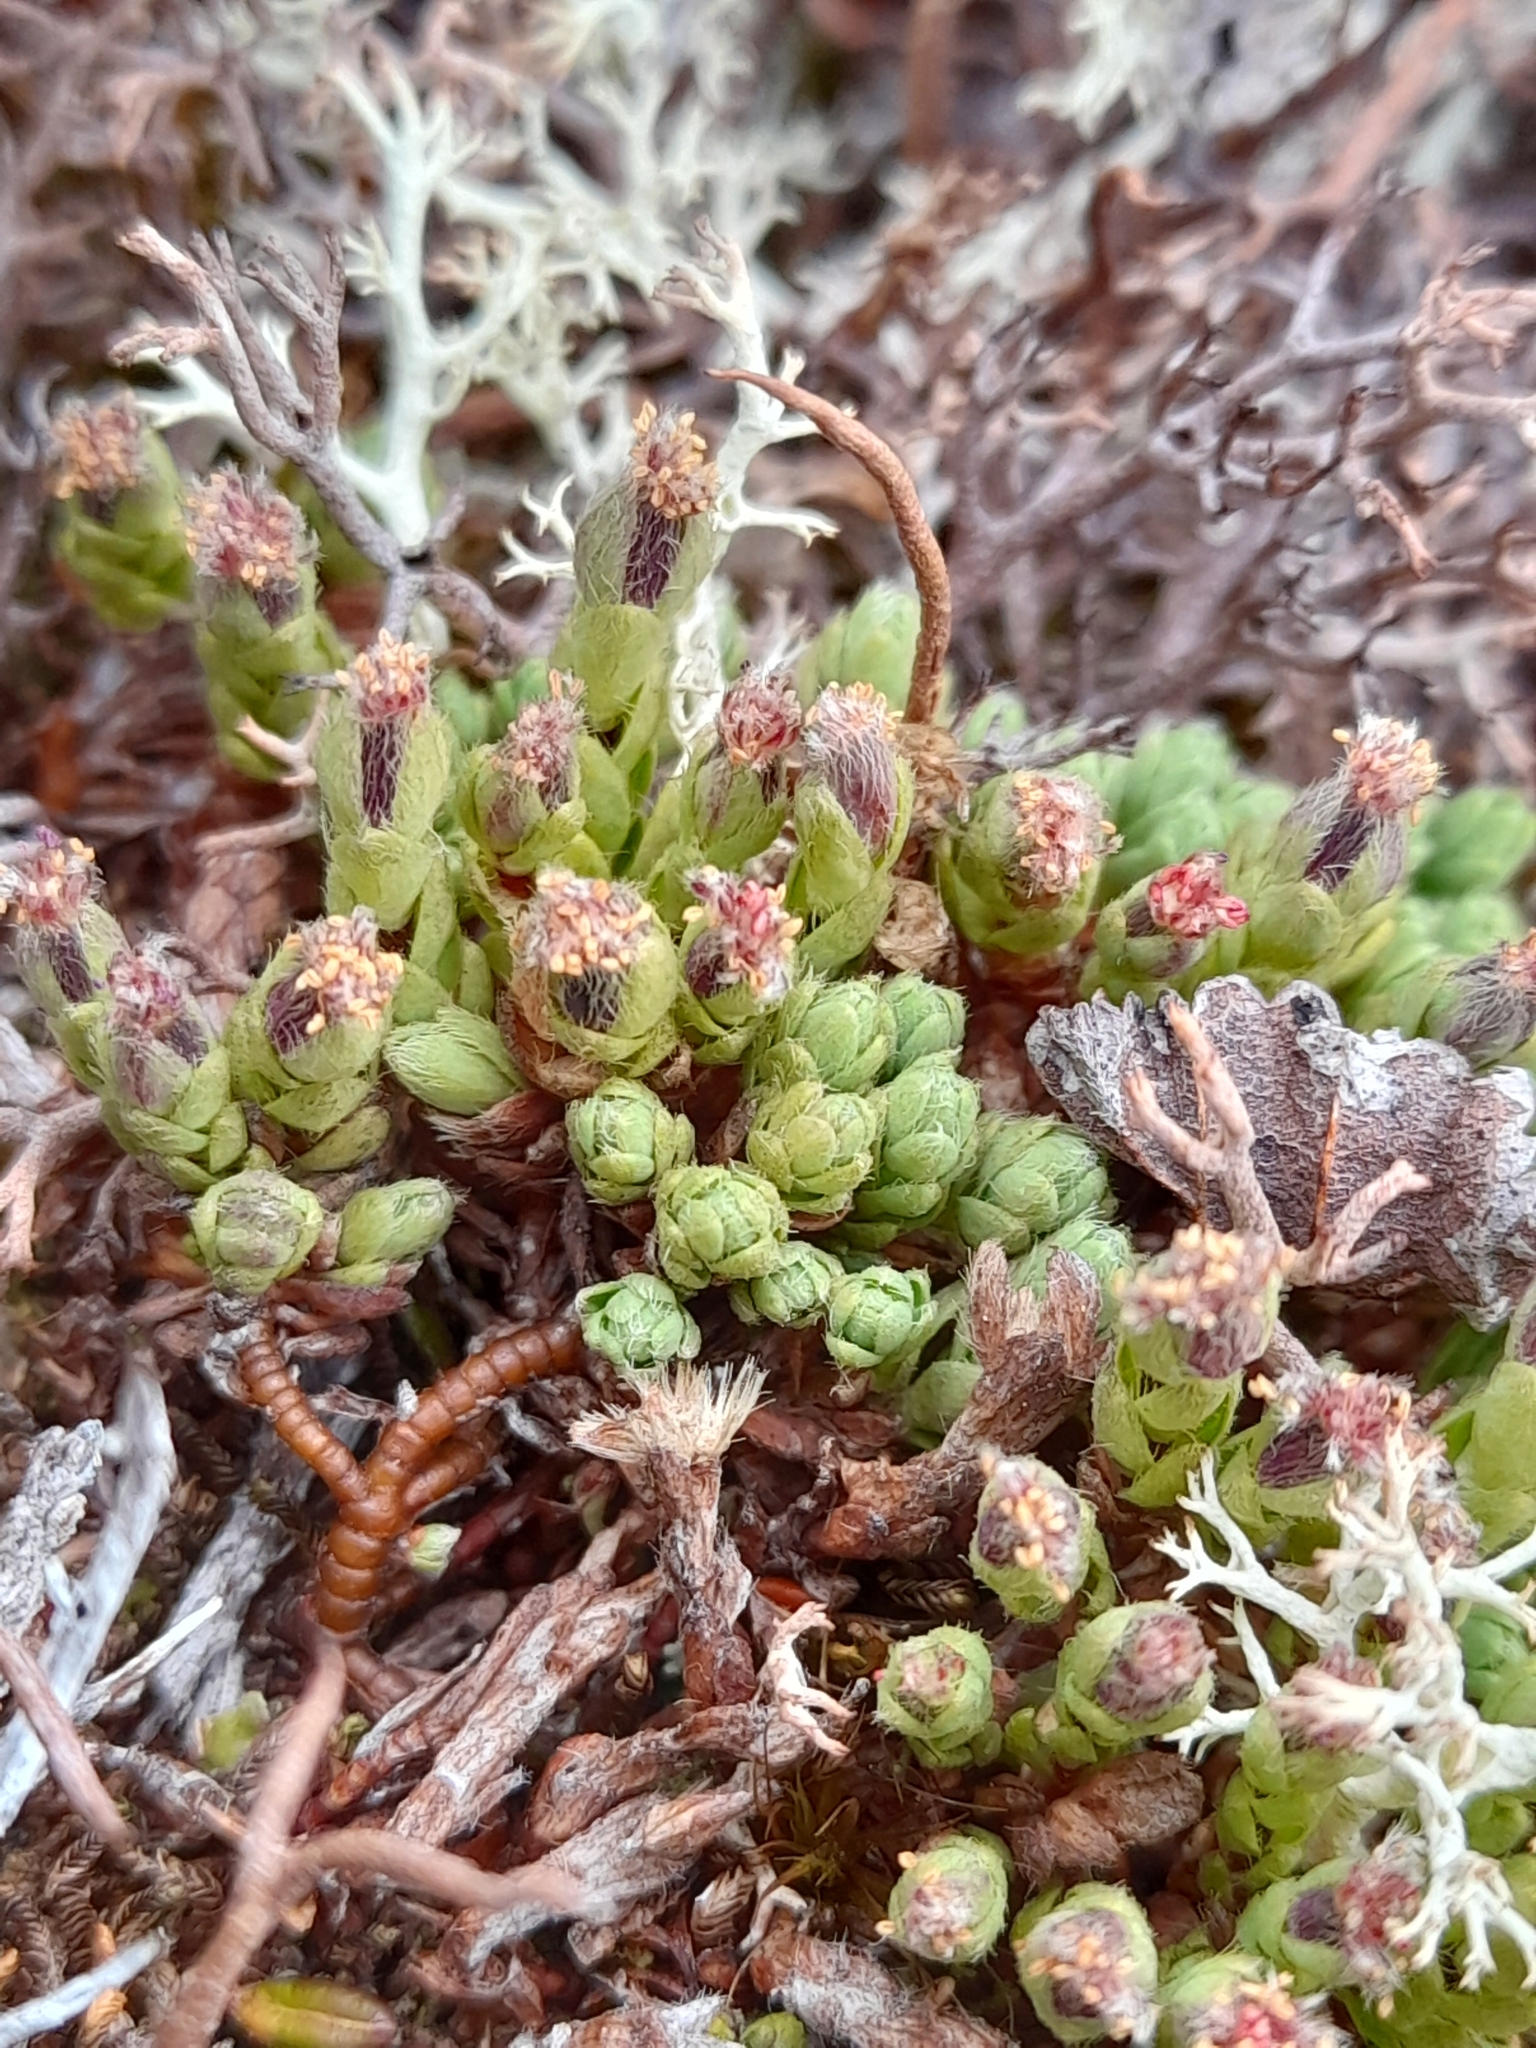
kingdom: Plantae
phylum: Tracheophyta
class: Magnoliopsida
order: Malvales
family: Thymelaeaceae
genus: Drapetes
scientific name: Drapetes muscosus
